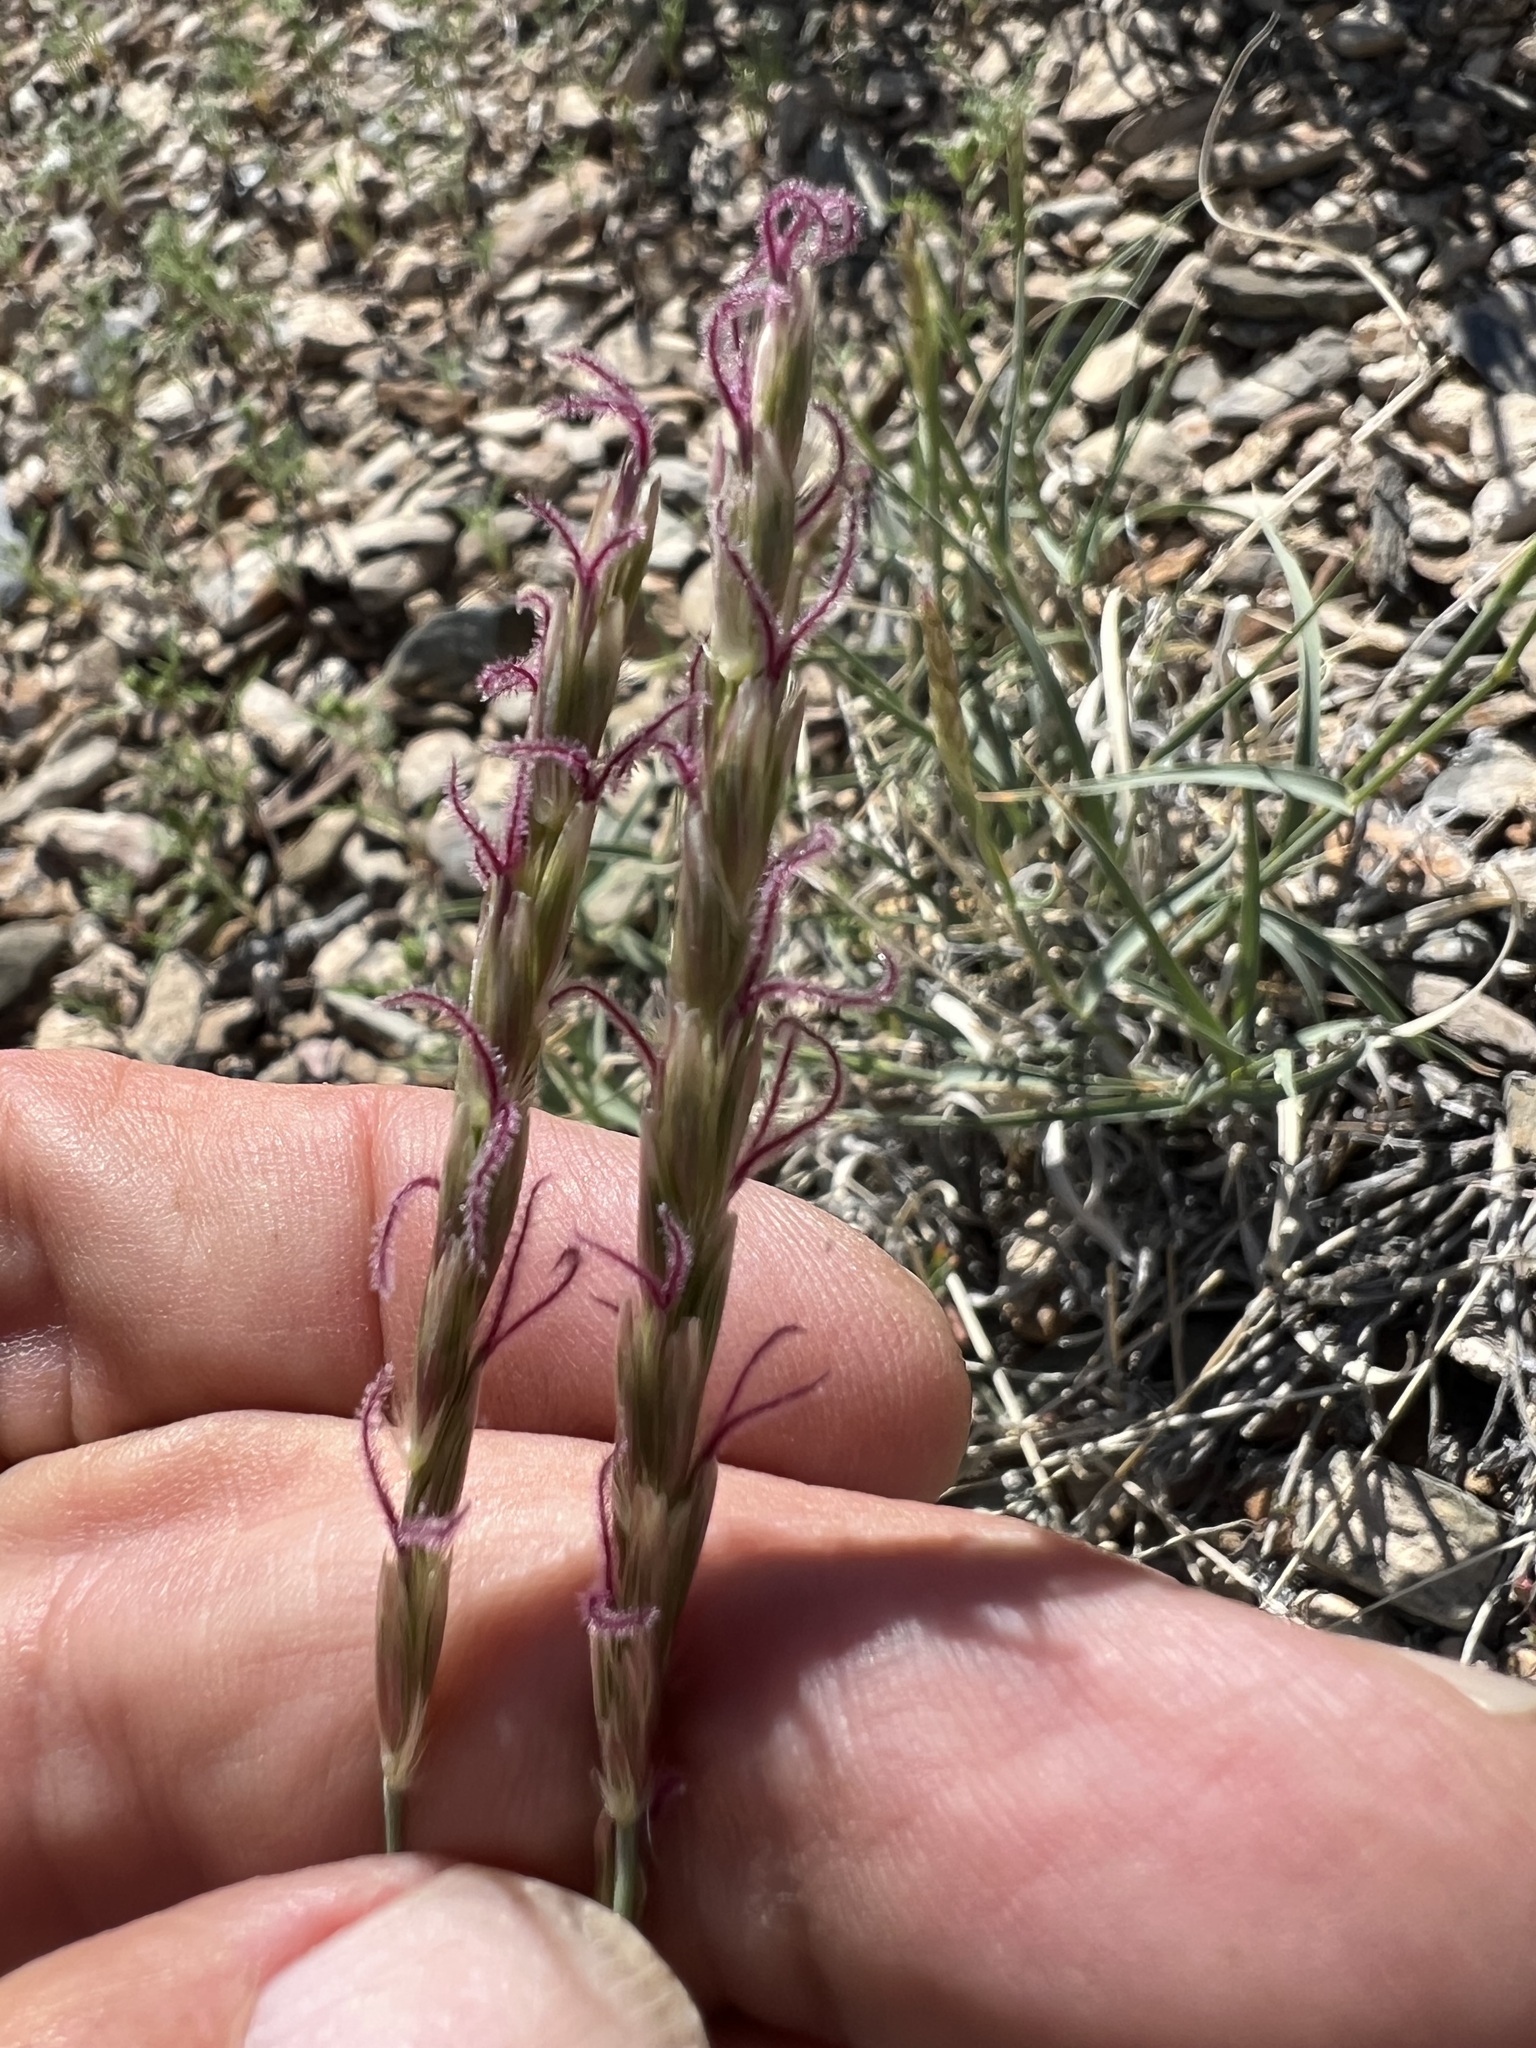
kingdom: Plantae
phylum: Tracheophyta
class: Liliopsida
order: Poales
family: Poaceae
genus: Hilaria
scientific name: Hilaria jamesii
